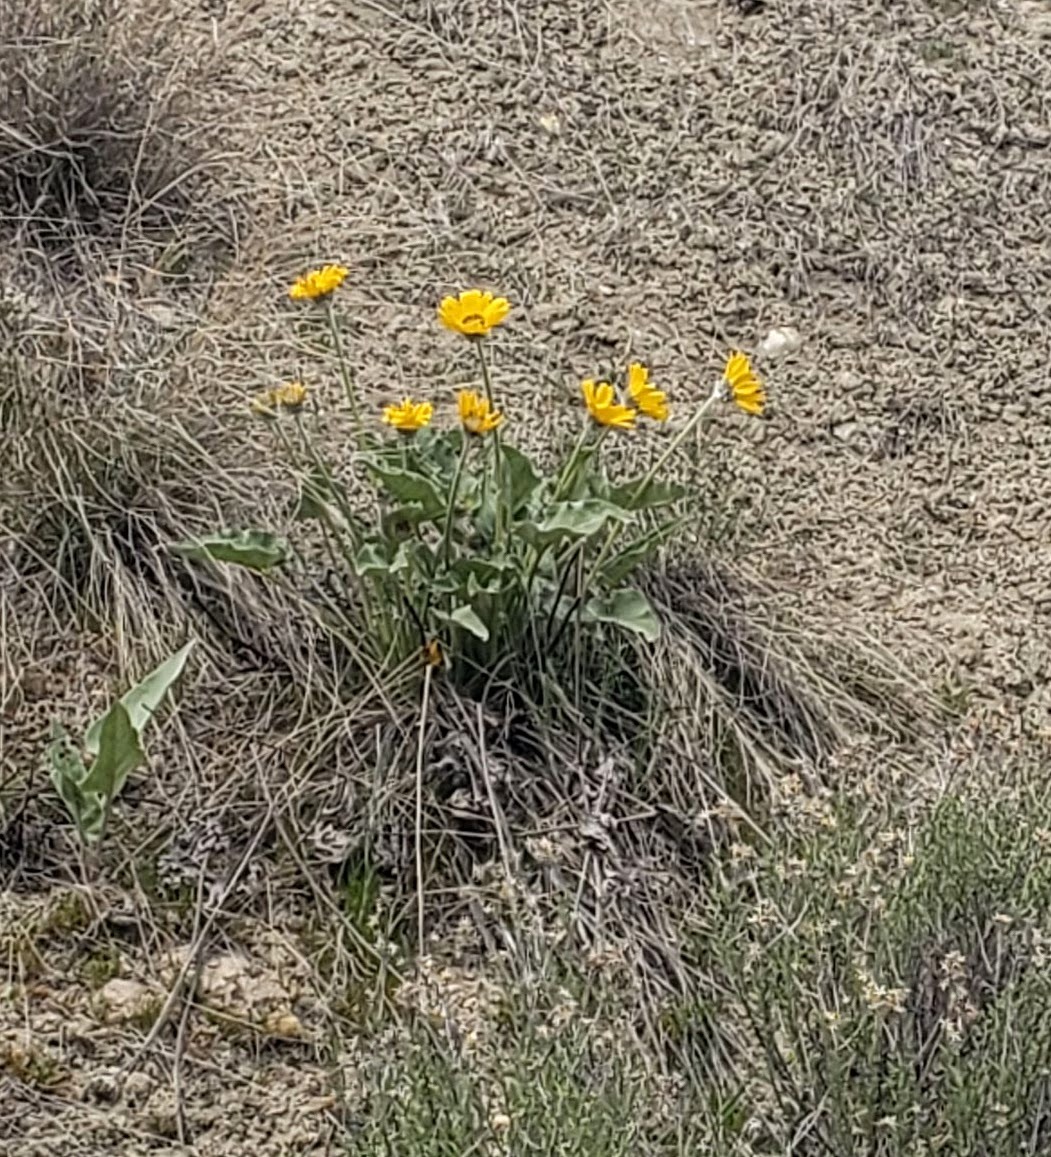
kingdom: Plantae
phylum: Tracheophyta
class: Magnoliopsida
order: Asterales
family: Asteraceae
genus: Wyethia
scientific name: Wyethia sagittata
